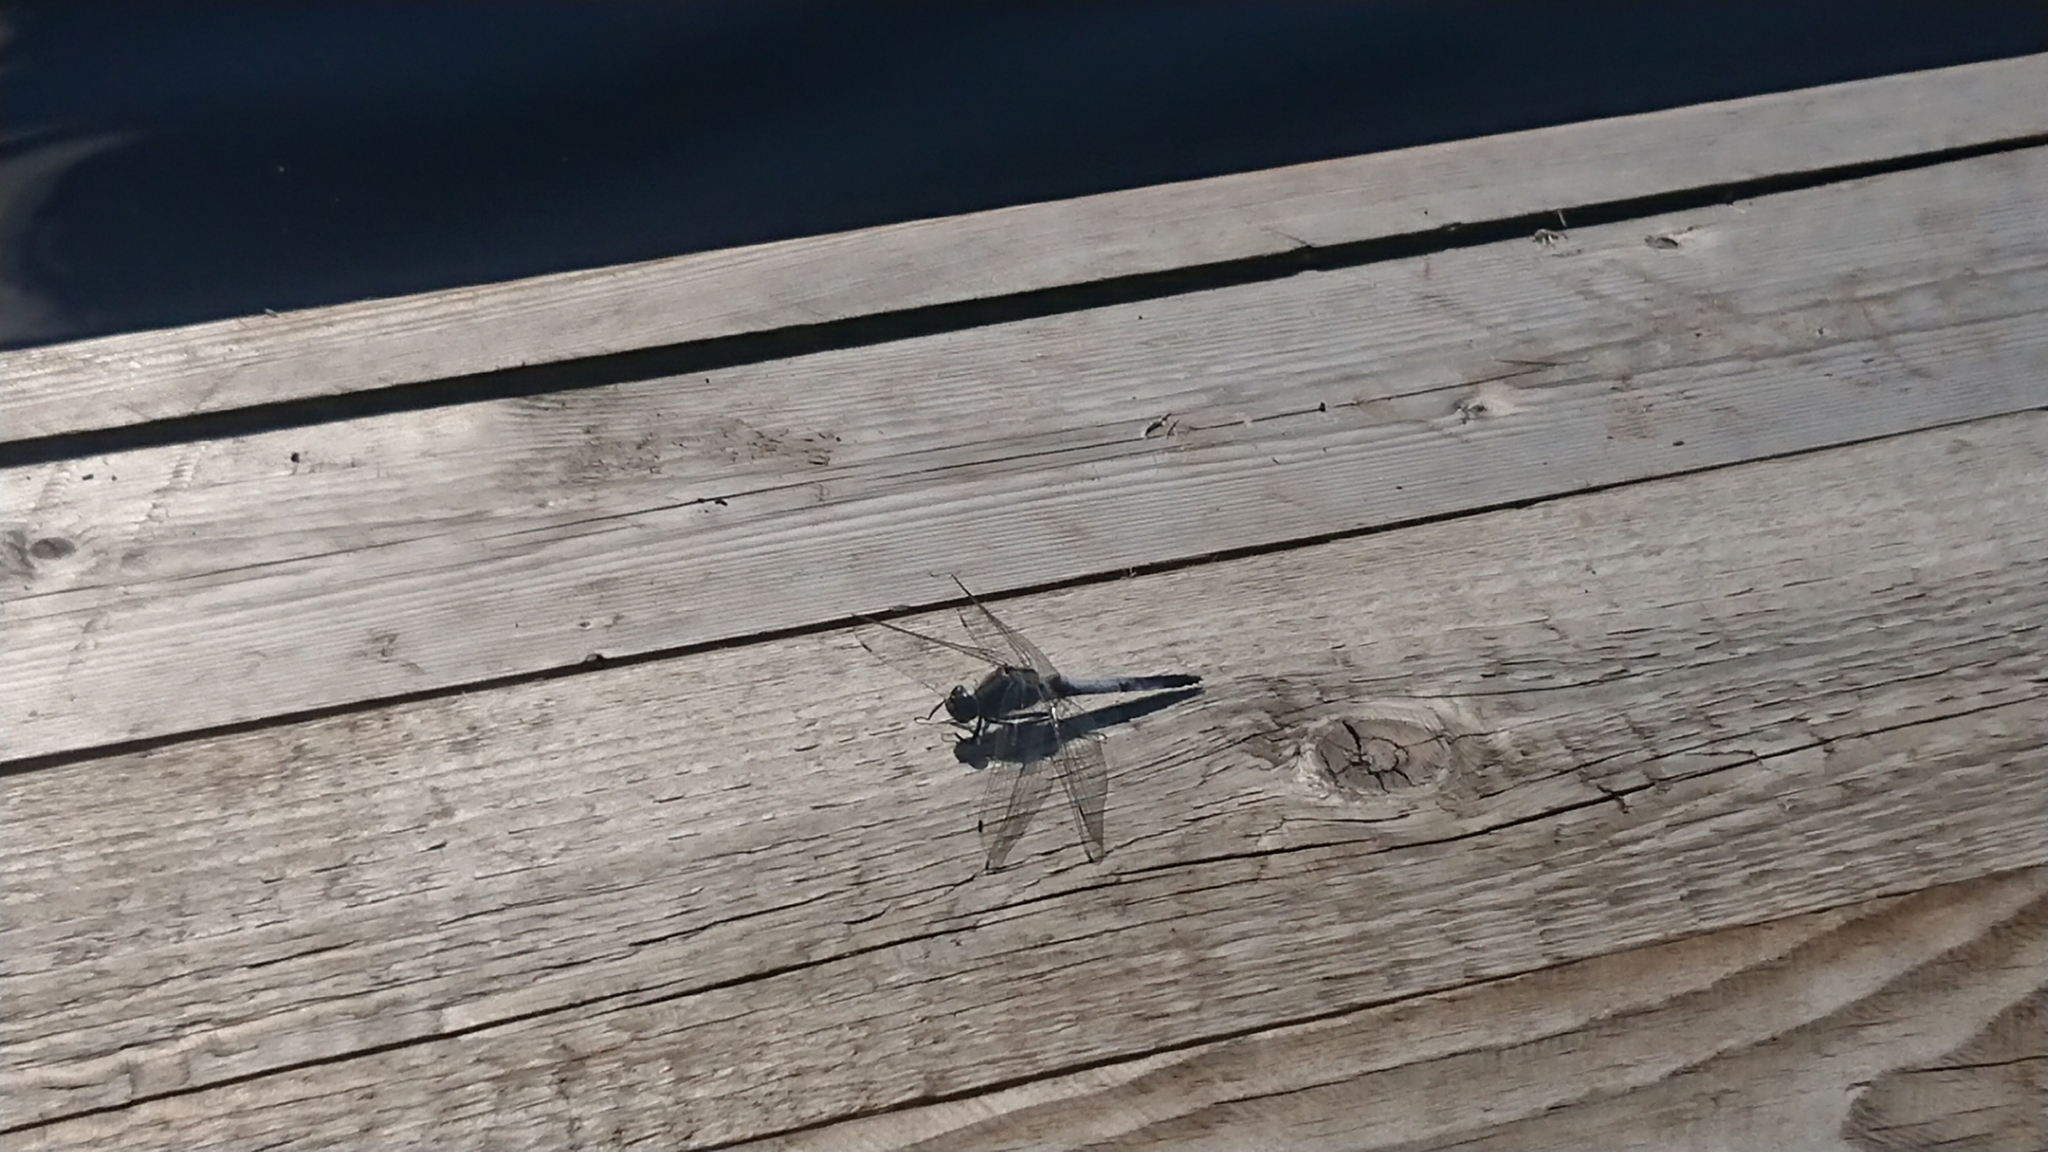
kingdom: Animalia
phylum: Arthropoda
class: Insecta
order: Odonata
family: Libellulidae
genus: Orthetrum
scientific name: Orthetrum cancellatum
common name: Black-tailed skimmer
